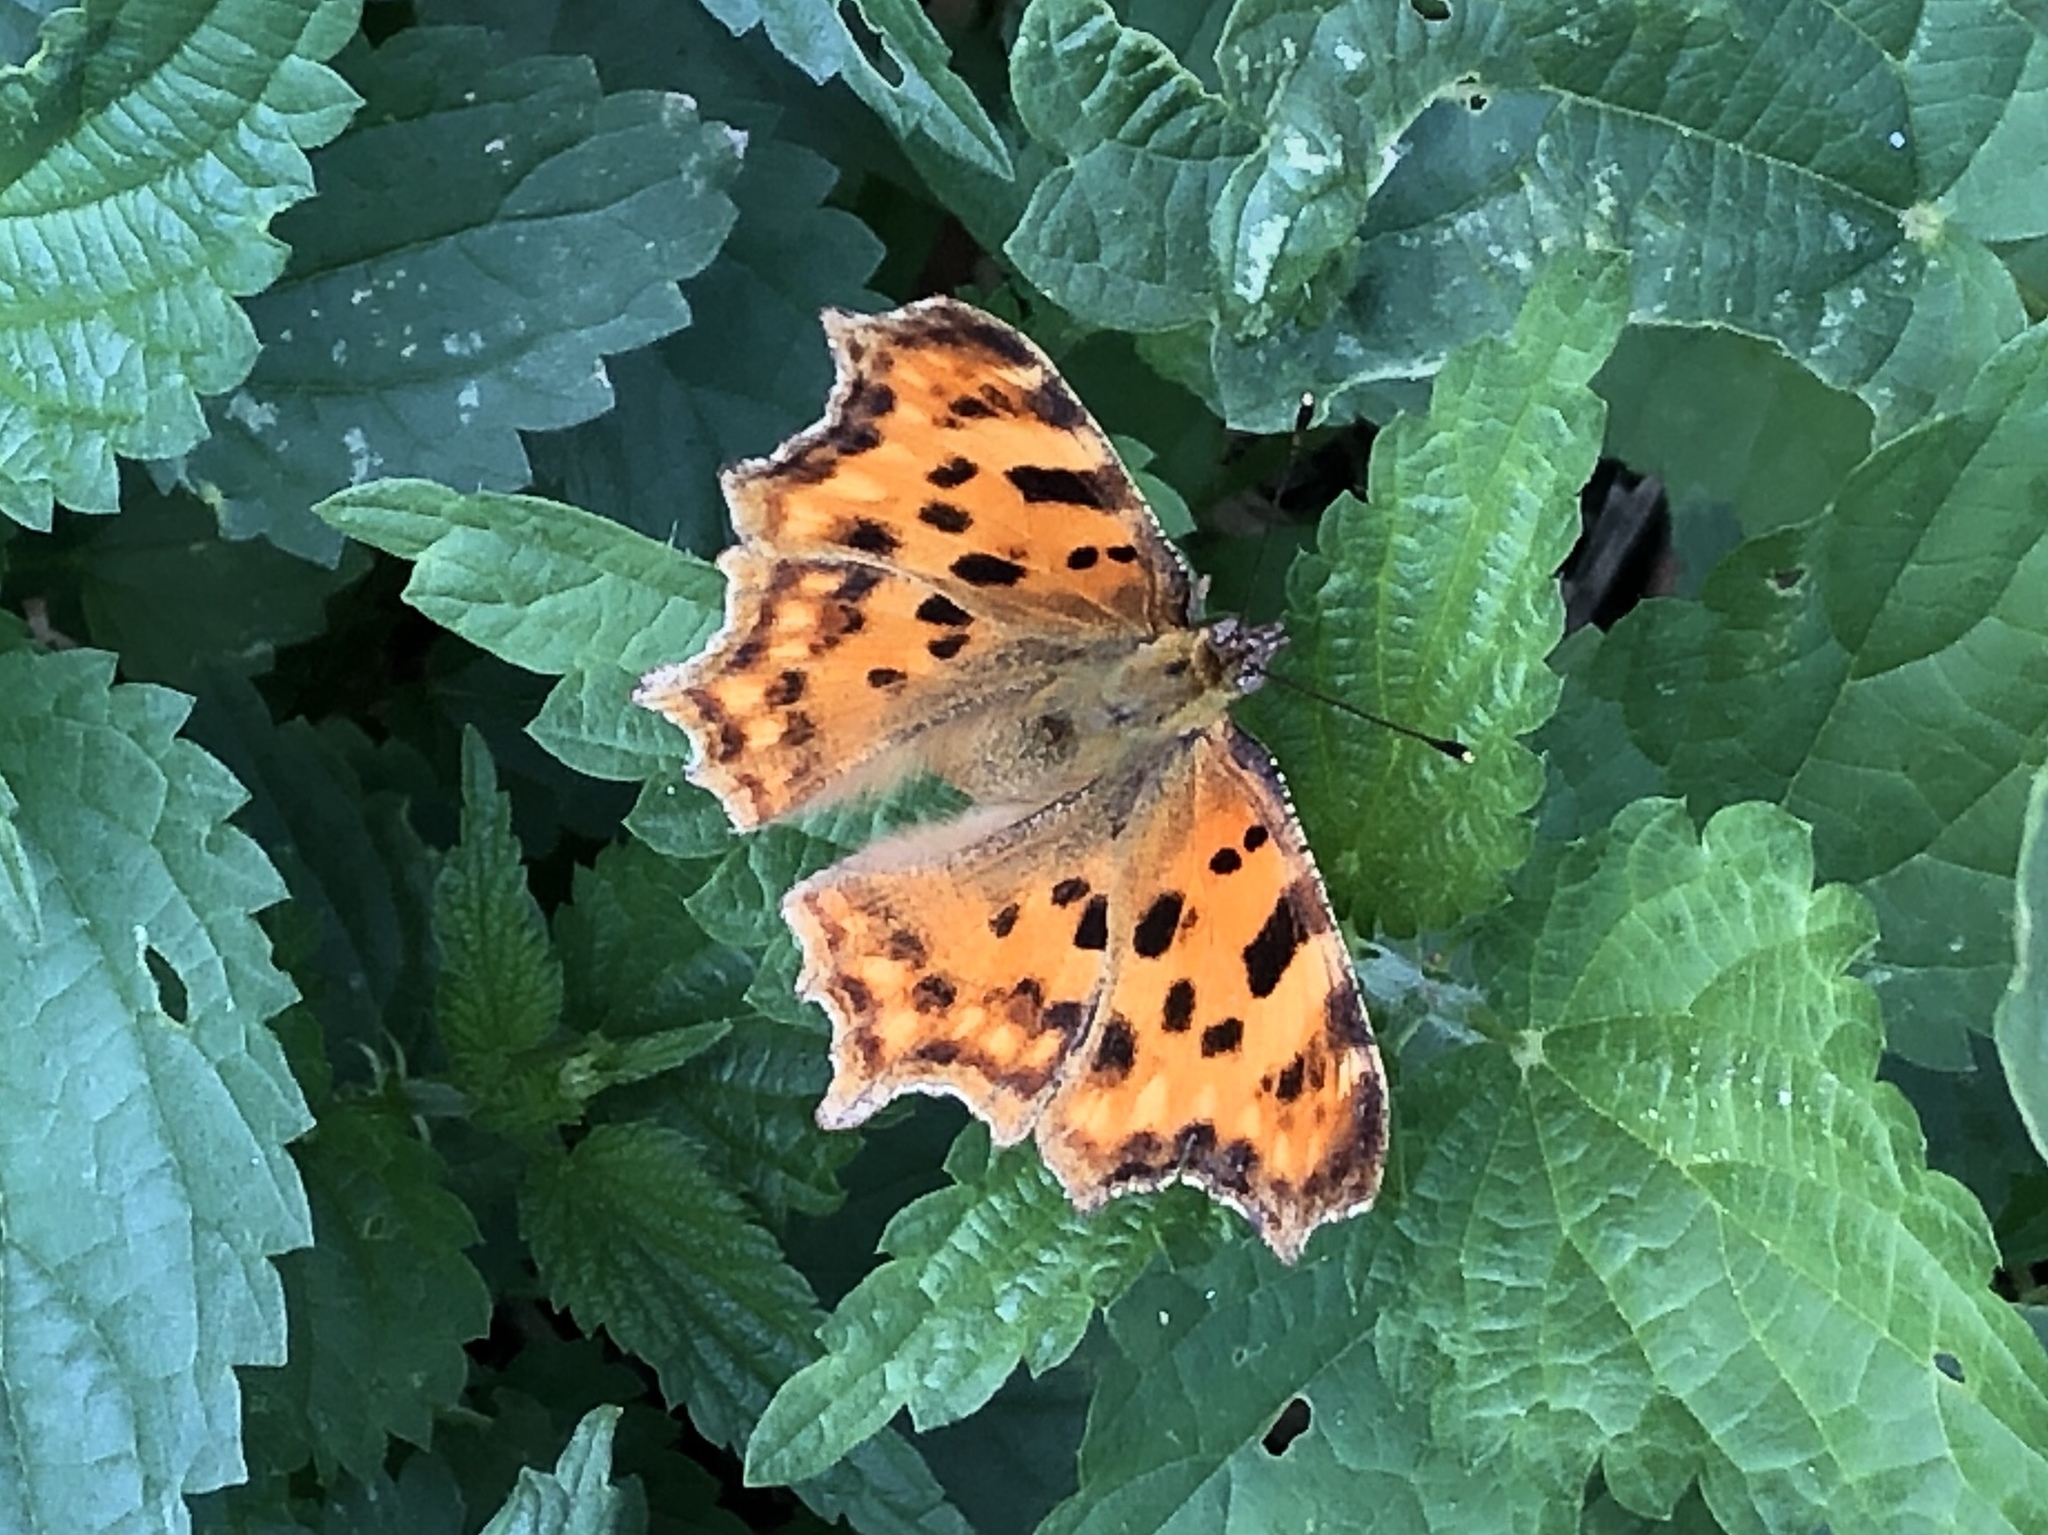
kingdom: Animalia
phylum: Arthropoda
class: Insecta
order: Lepidoptera
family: Nymphalidae
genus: Polygonia
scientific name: Polygonia c-album
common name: Comma
